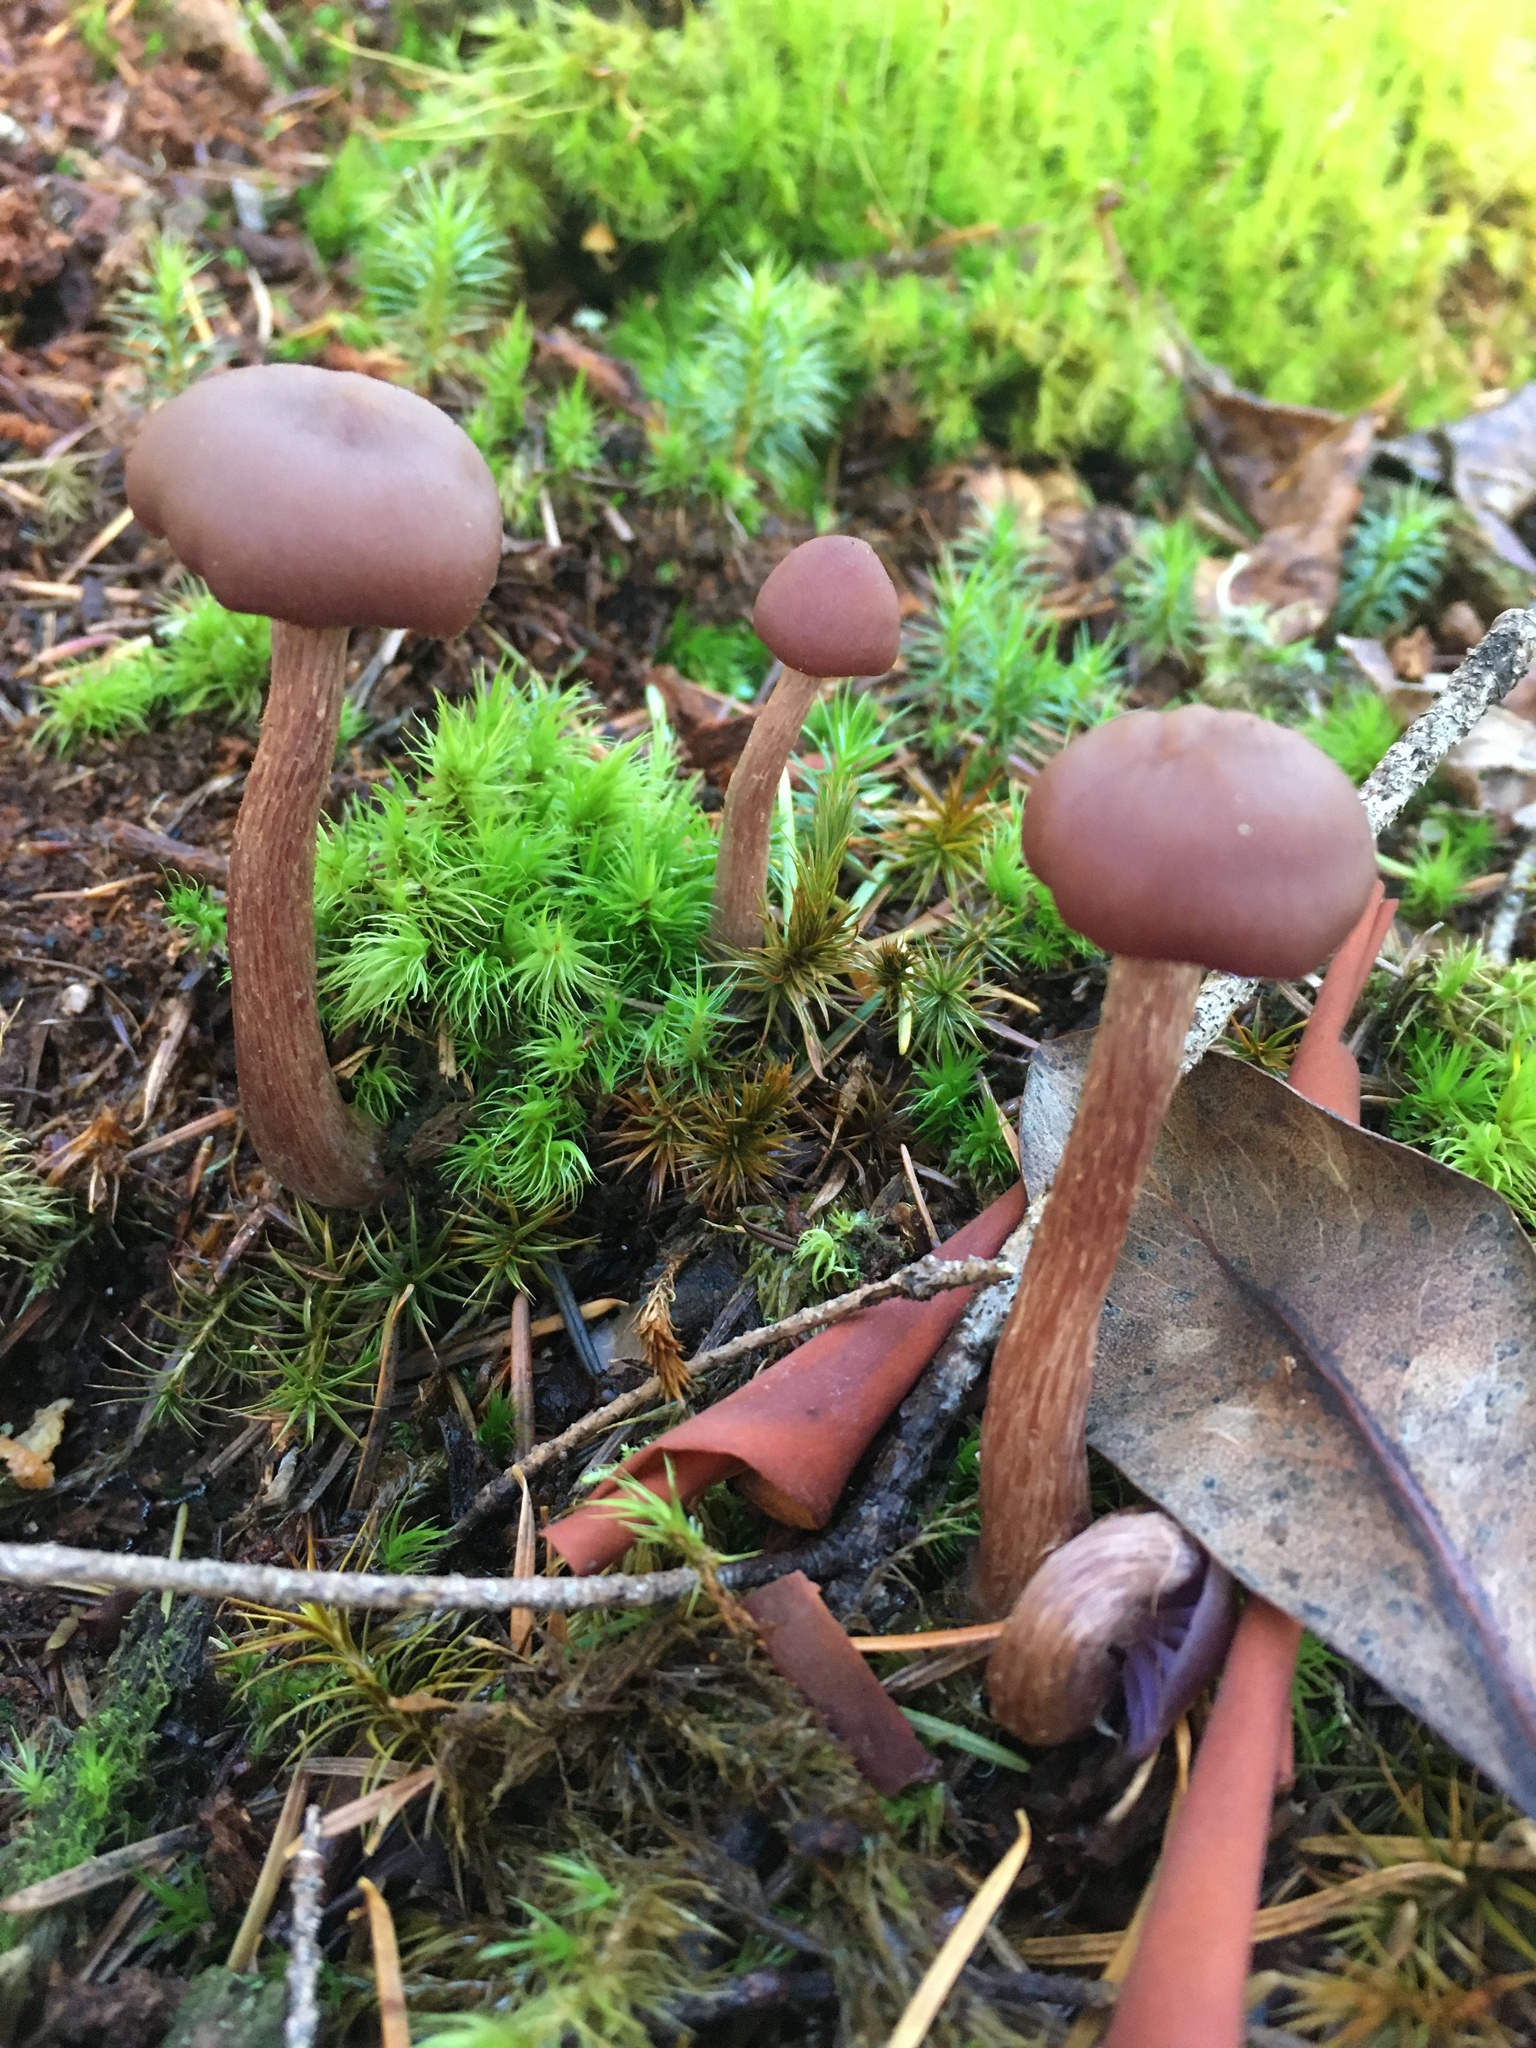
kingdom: Fungi
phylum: Basidiomycota
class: Agaricomycetes
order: Agaricales
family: Hydnangiaceae
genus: Laccaria
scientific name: Laccaria amethysteo-occidentalis
